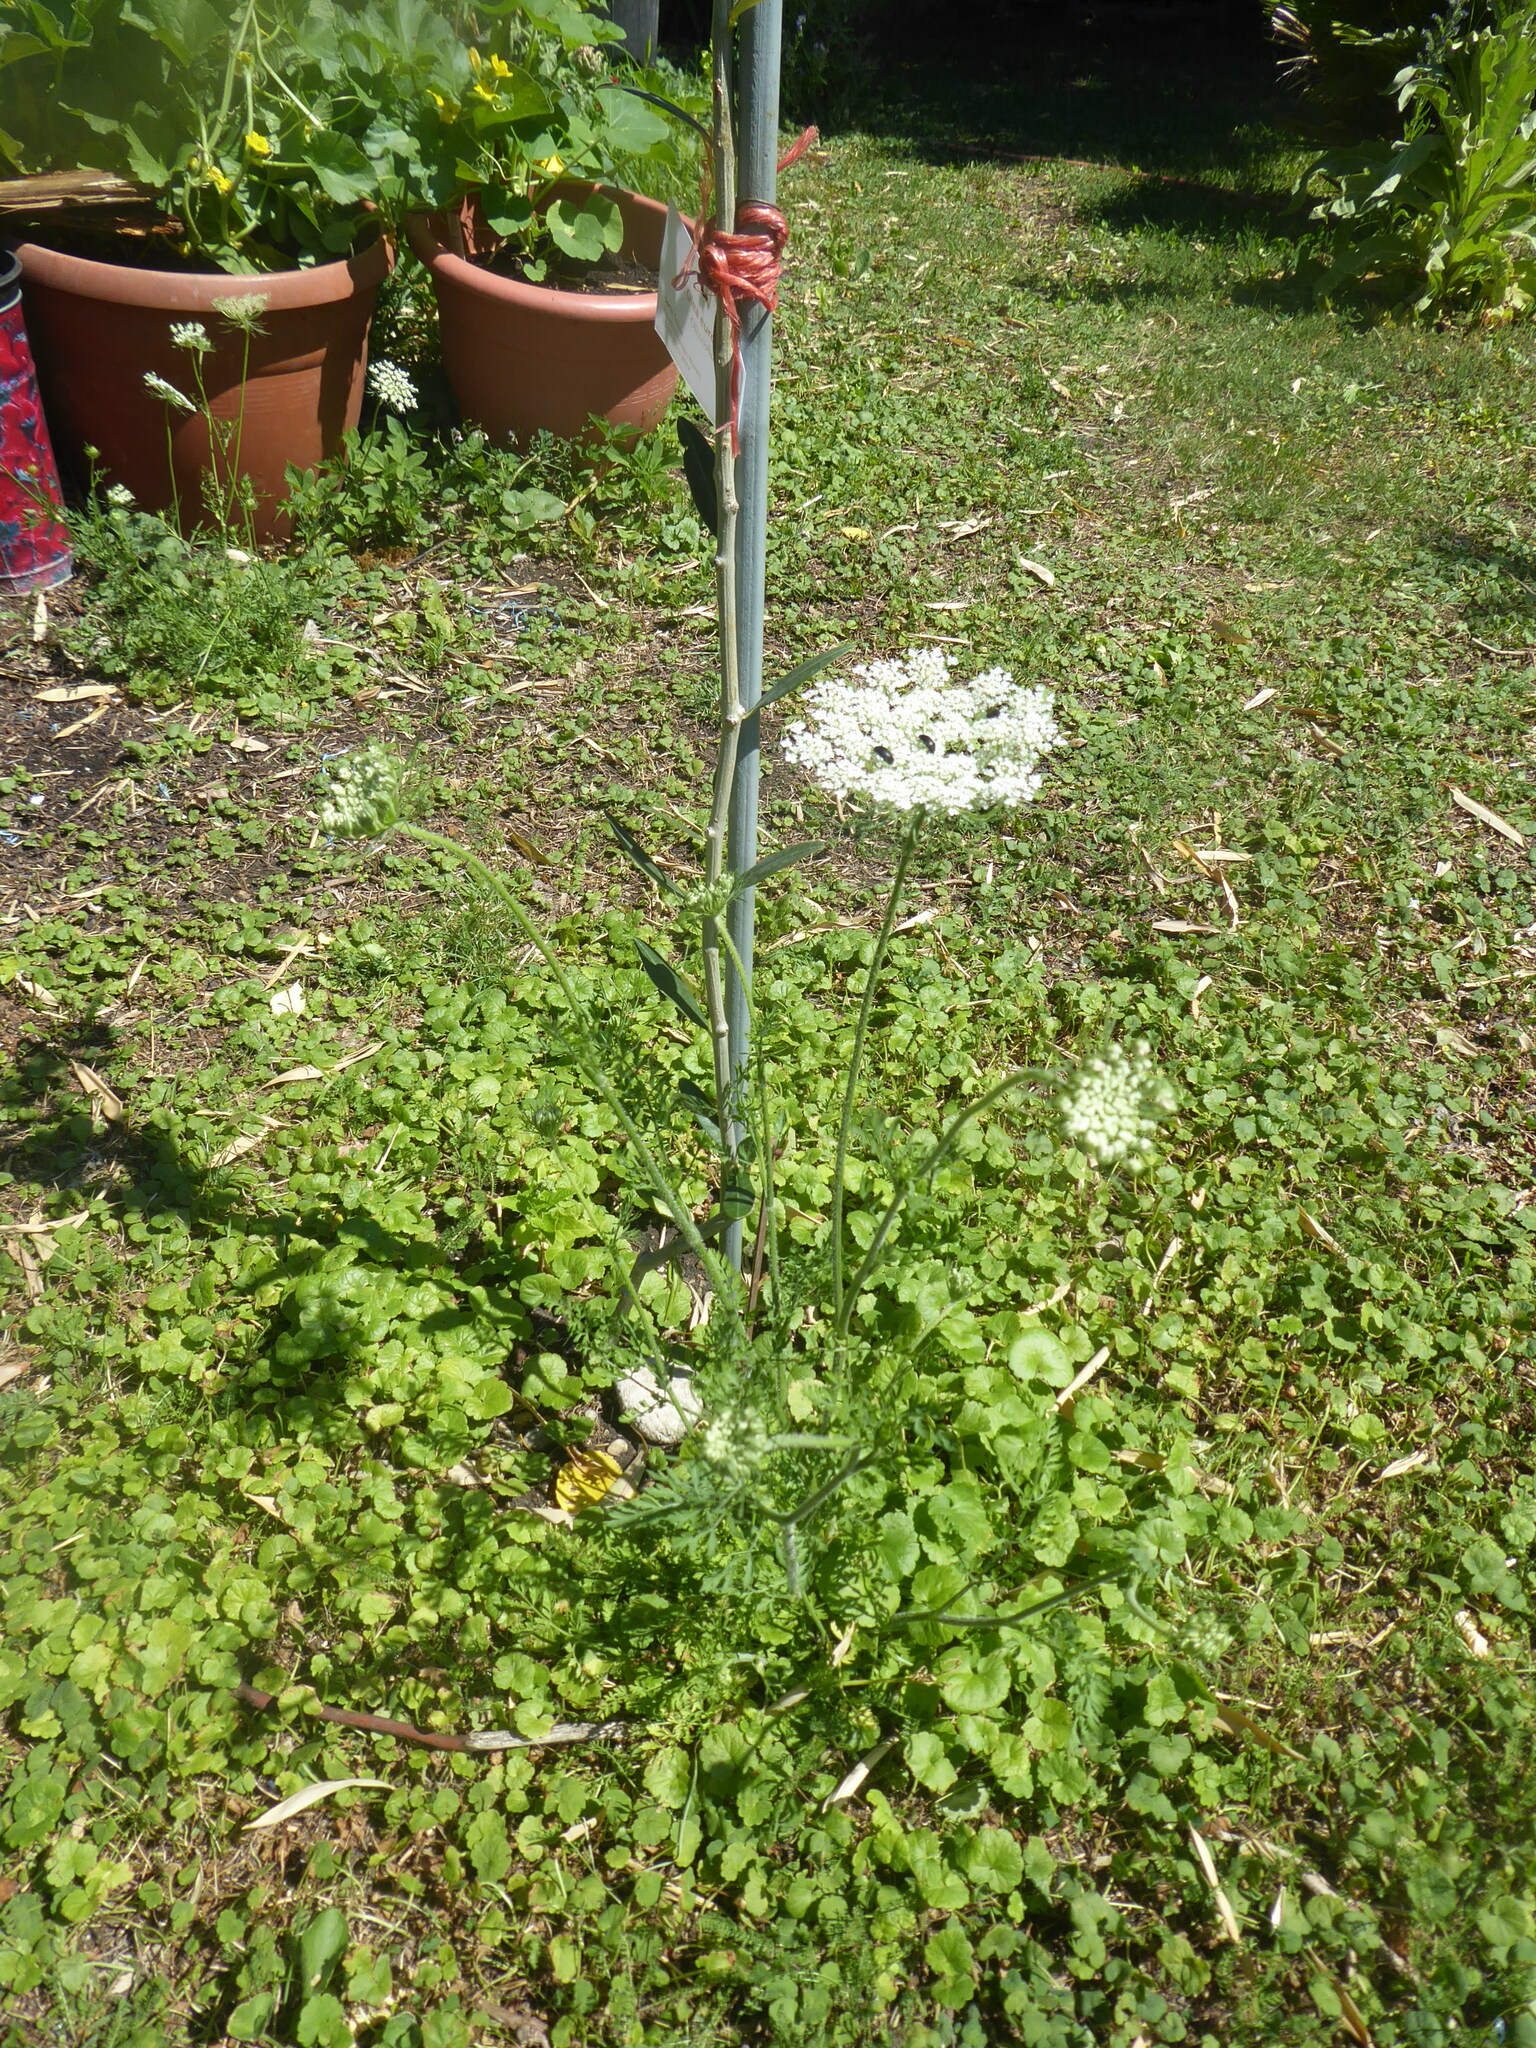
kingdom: Plantae
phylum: Tracheophyta
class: Magnoliopsida
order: Apiales
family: Apiaceae
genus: Daucus
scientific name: Daucus carota
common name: Wild carrot
